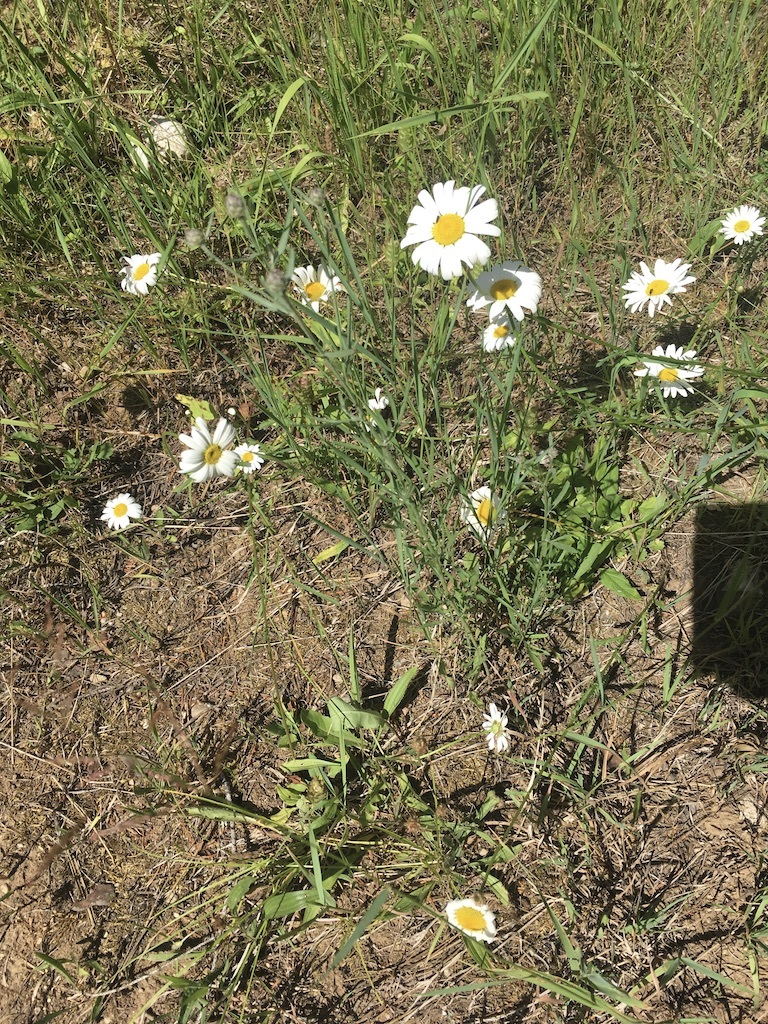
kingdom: Plantae
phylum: Tracheophyta
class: Magnoliopsida
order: Asterales
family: Asteraceae
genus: Leucanthemum
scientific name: Leucanthemum vulgare
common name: Oxeye daisy
